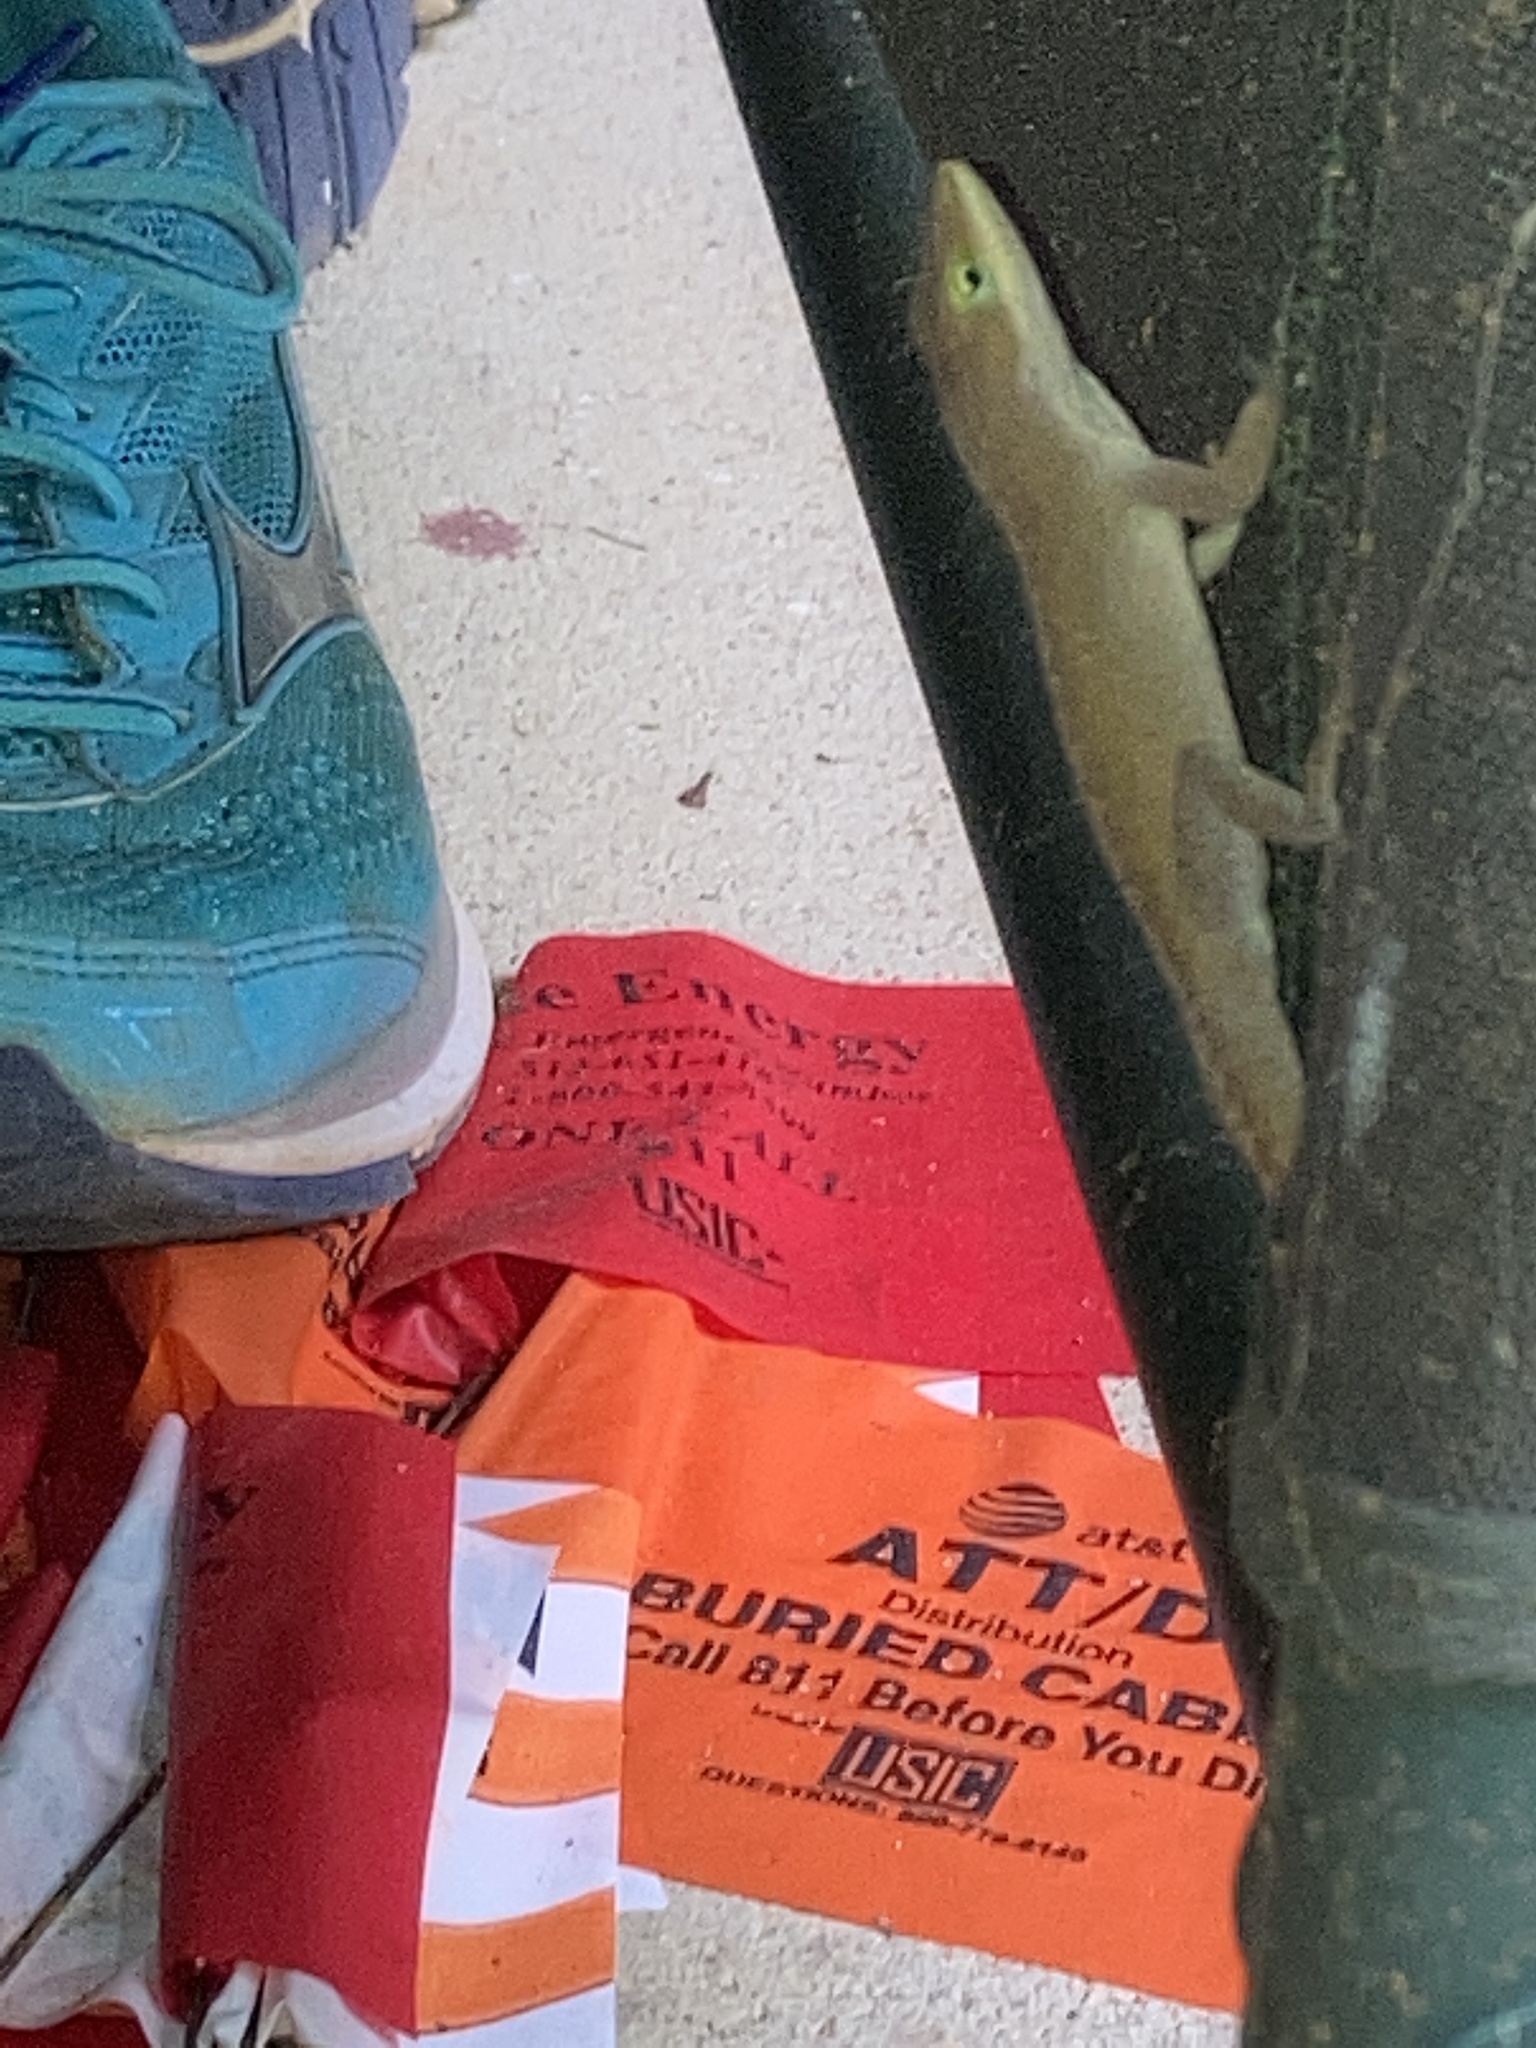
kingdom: Animalia
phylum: Chordata
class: Squamata
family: Dactyloidae
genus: Anolis
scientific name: Anolis carolinensis
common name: Green anole
